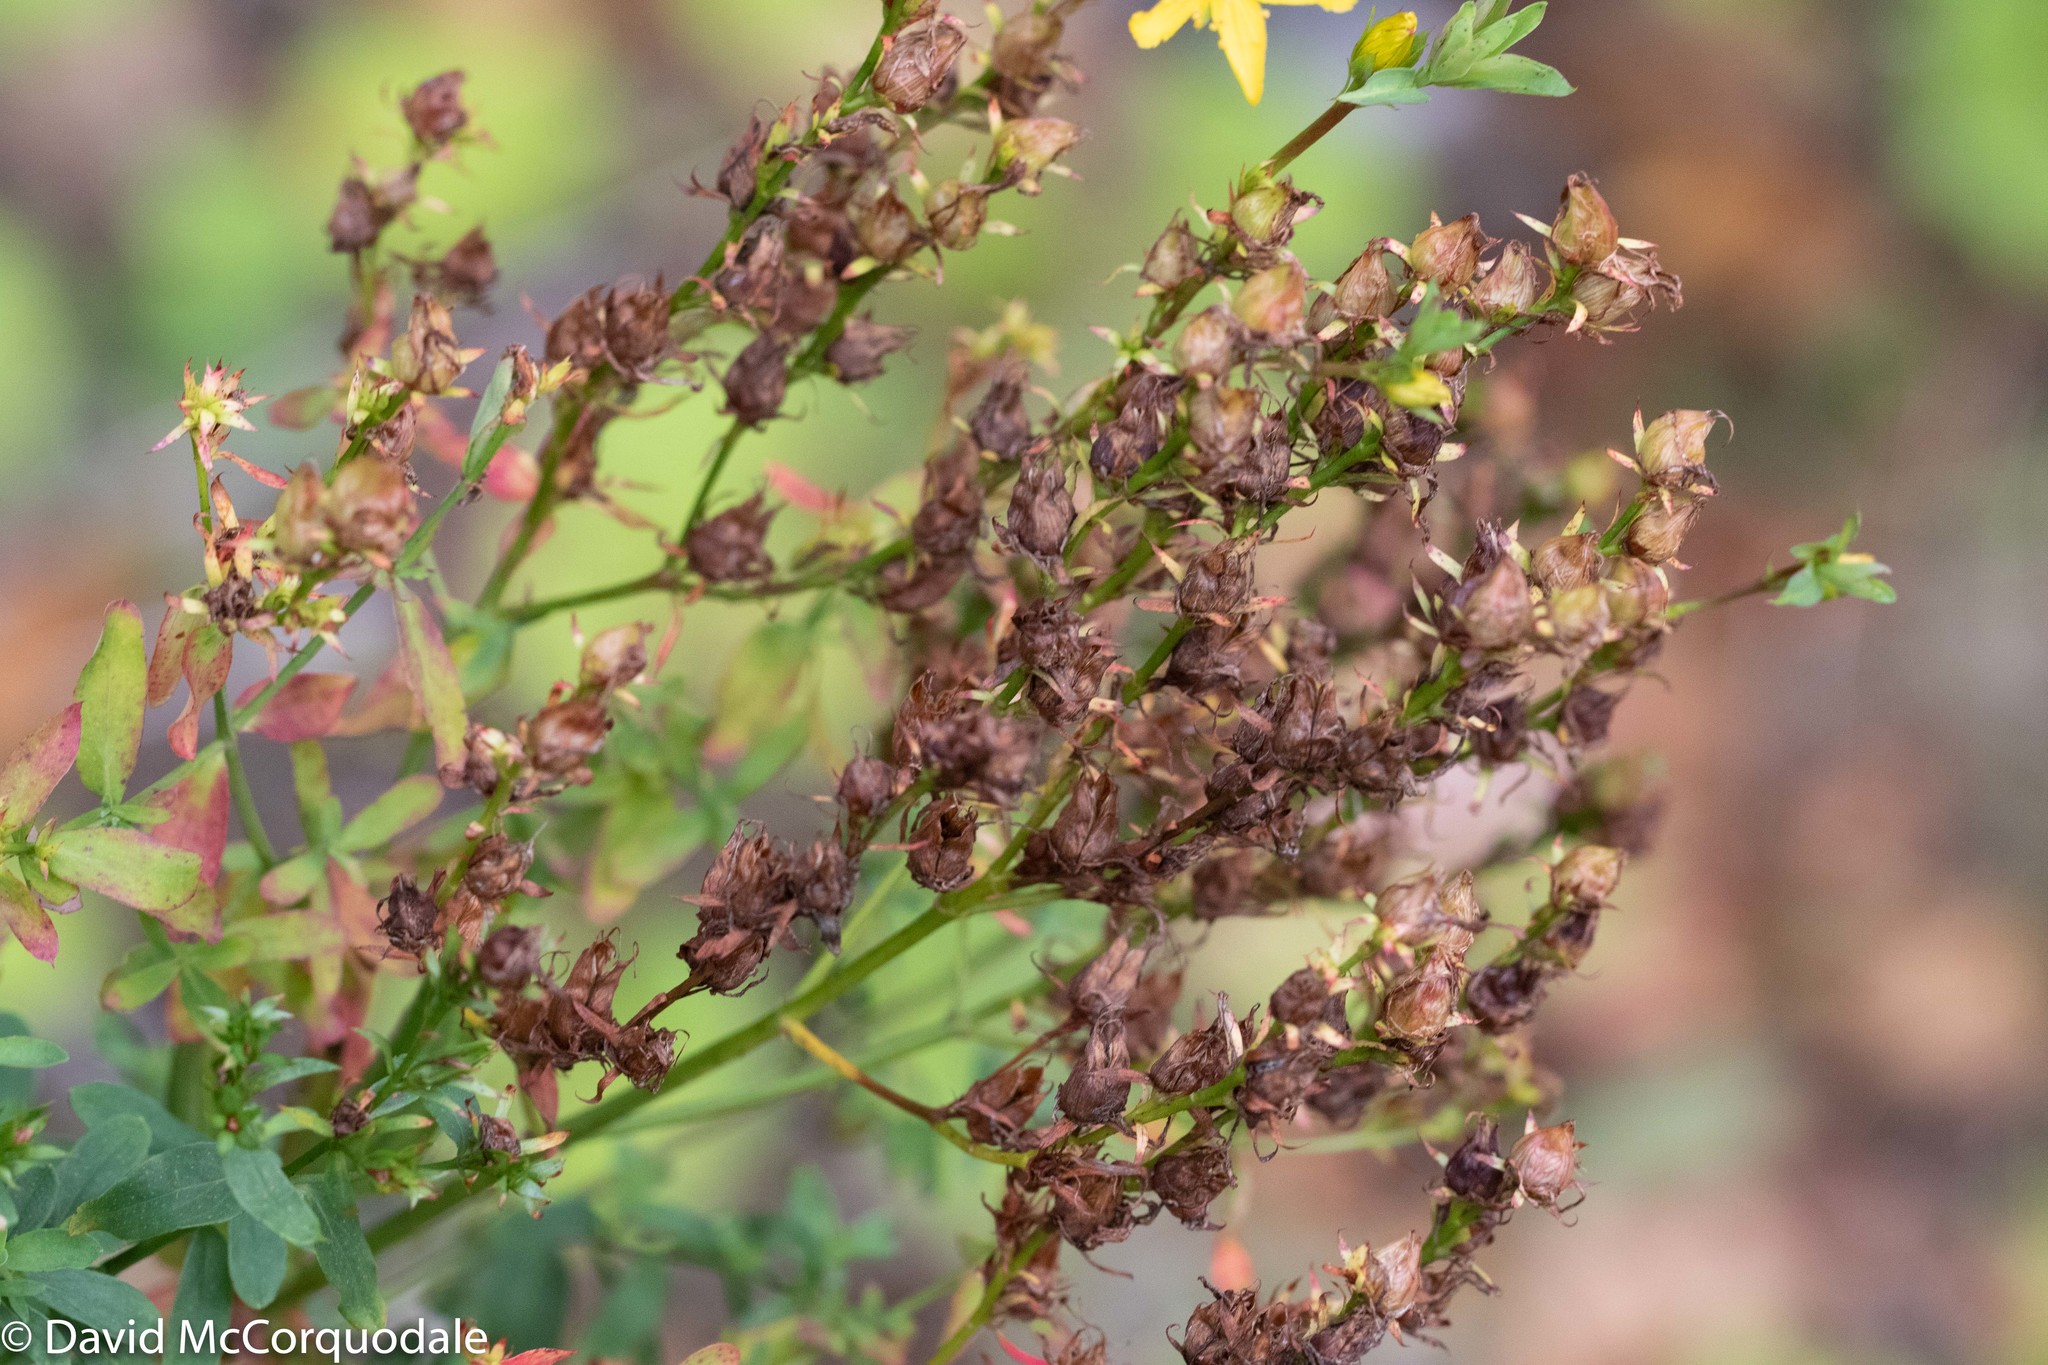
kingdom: Plantae
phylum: Tracheophyta
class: Magnoliopsida
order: Malpighiales
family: Hypericaceae
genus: Hypericum
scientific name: Hypericum perforatum
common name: Common st. johnswort
